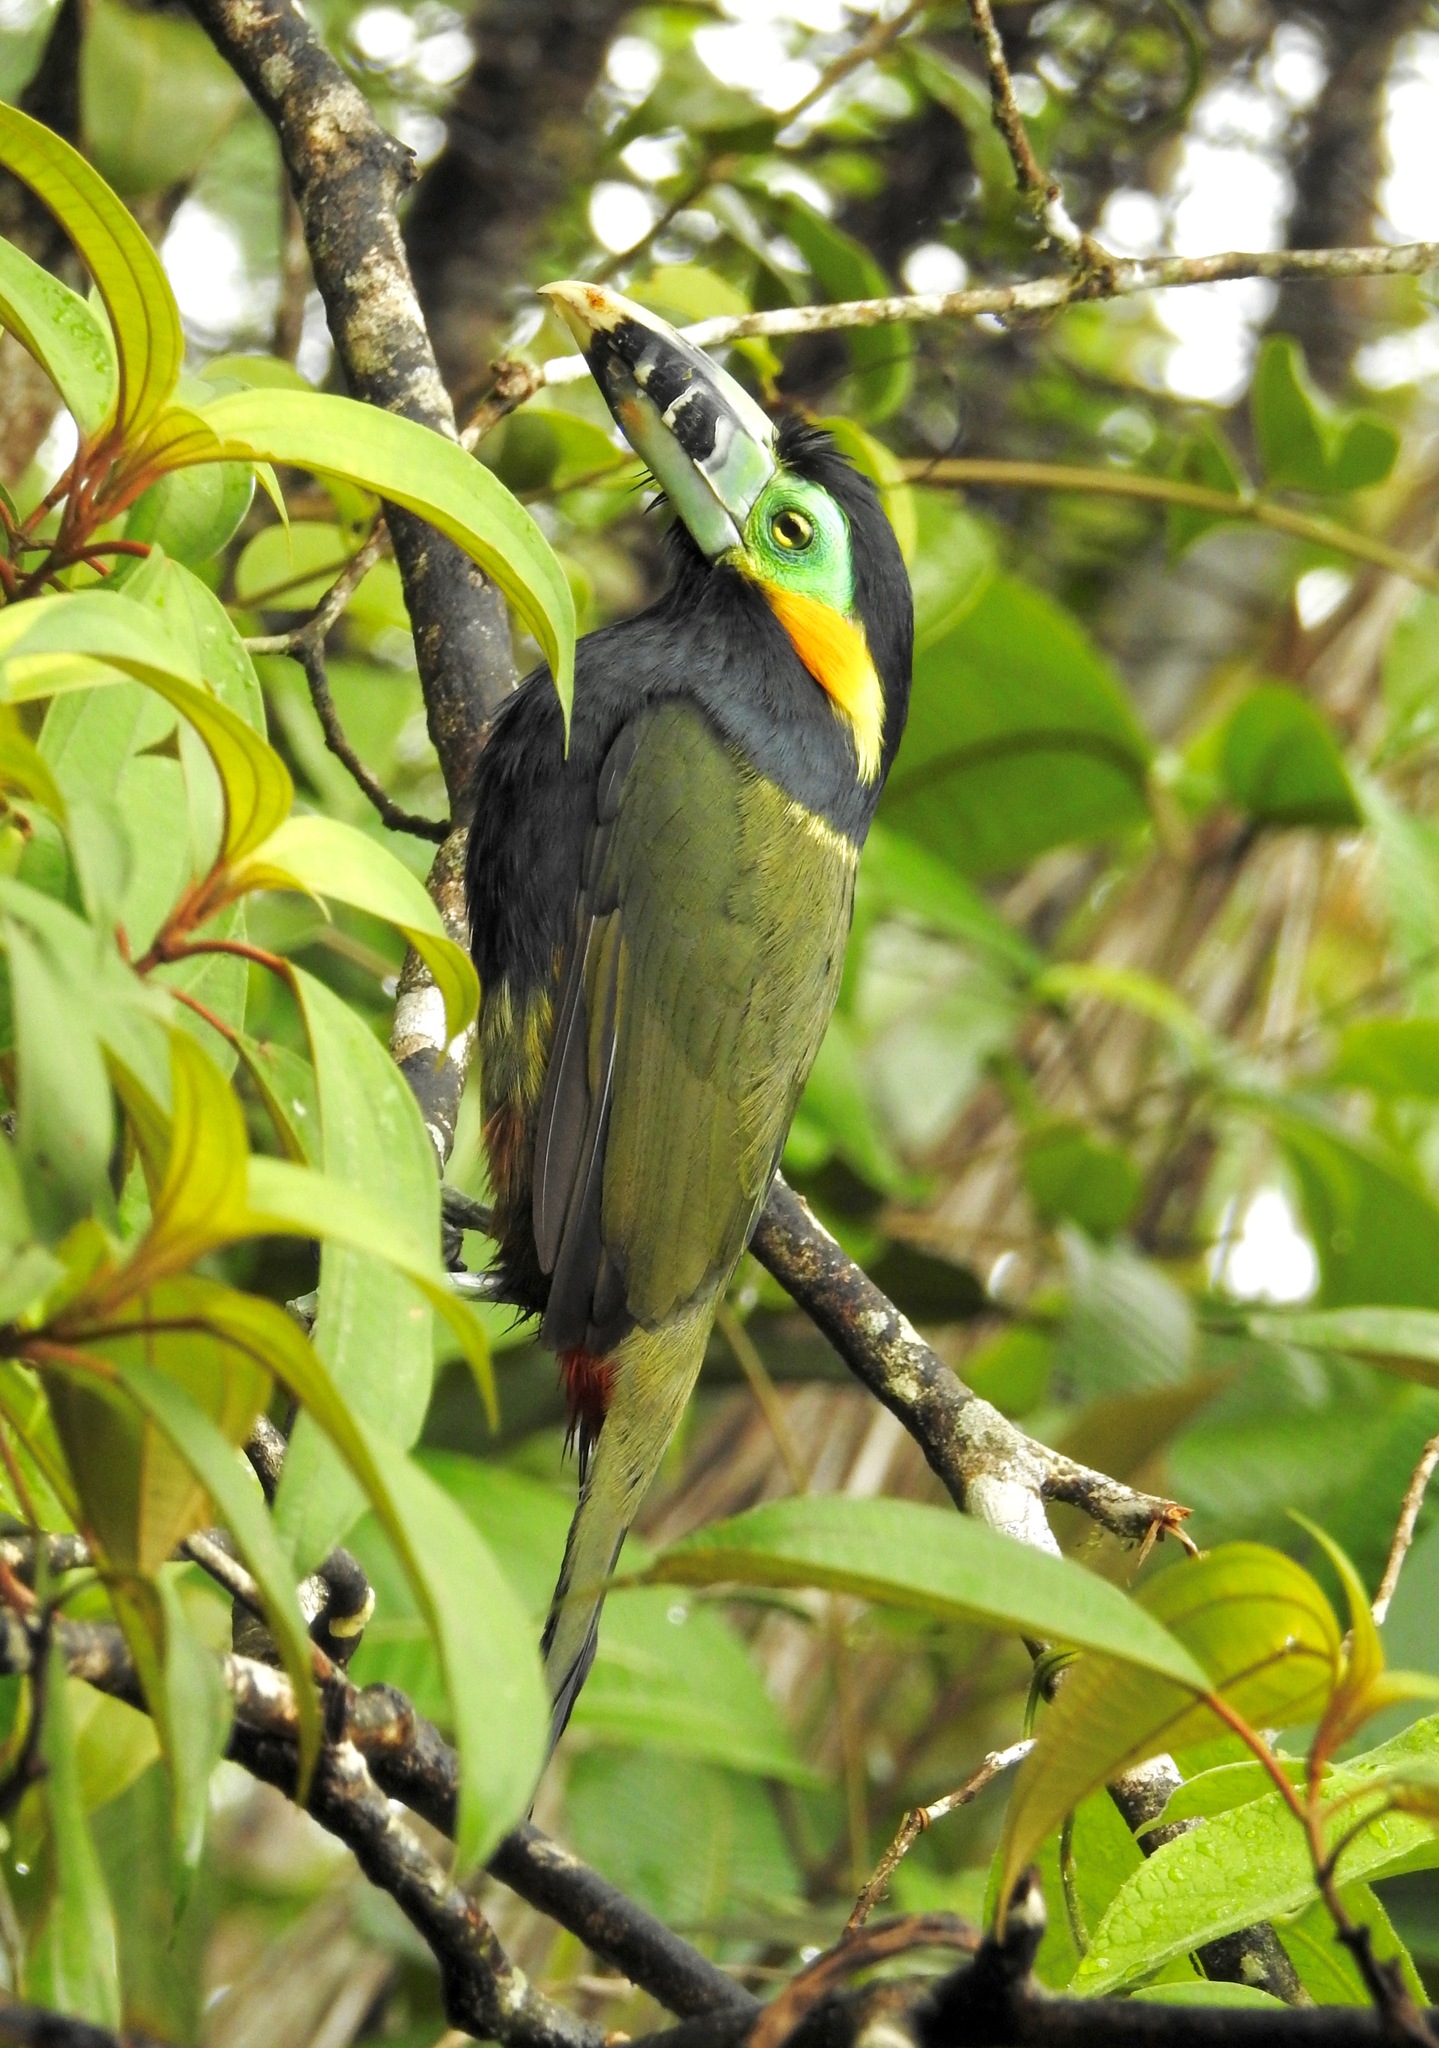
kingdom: Animalia
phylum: Chordata
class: Aves
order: Piciformes
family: Ramphastidae
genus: Selenidera
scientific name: Selenidera maculirostris
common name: Spot-billed toucanet
